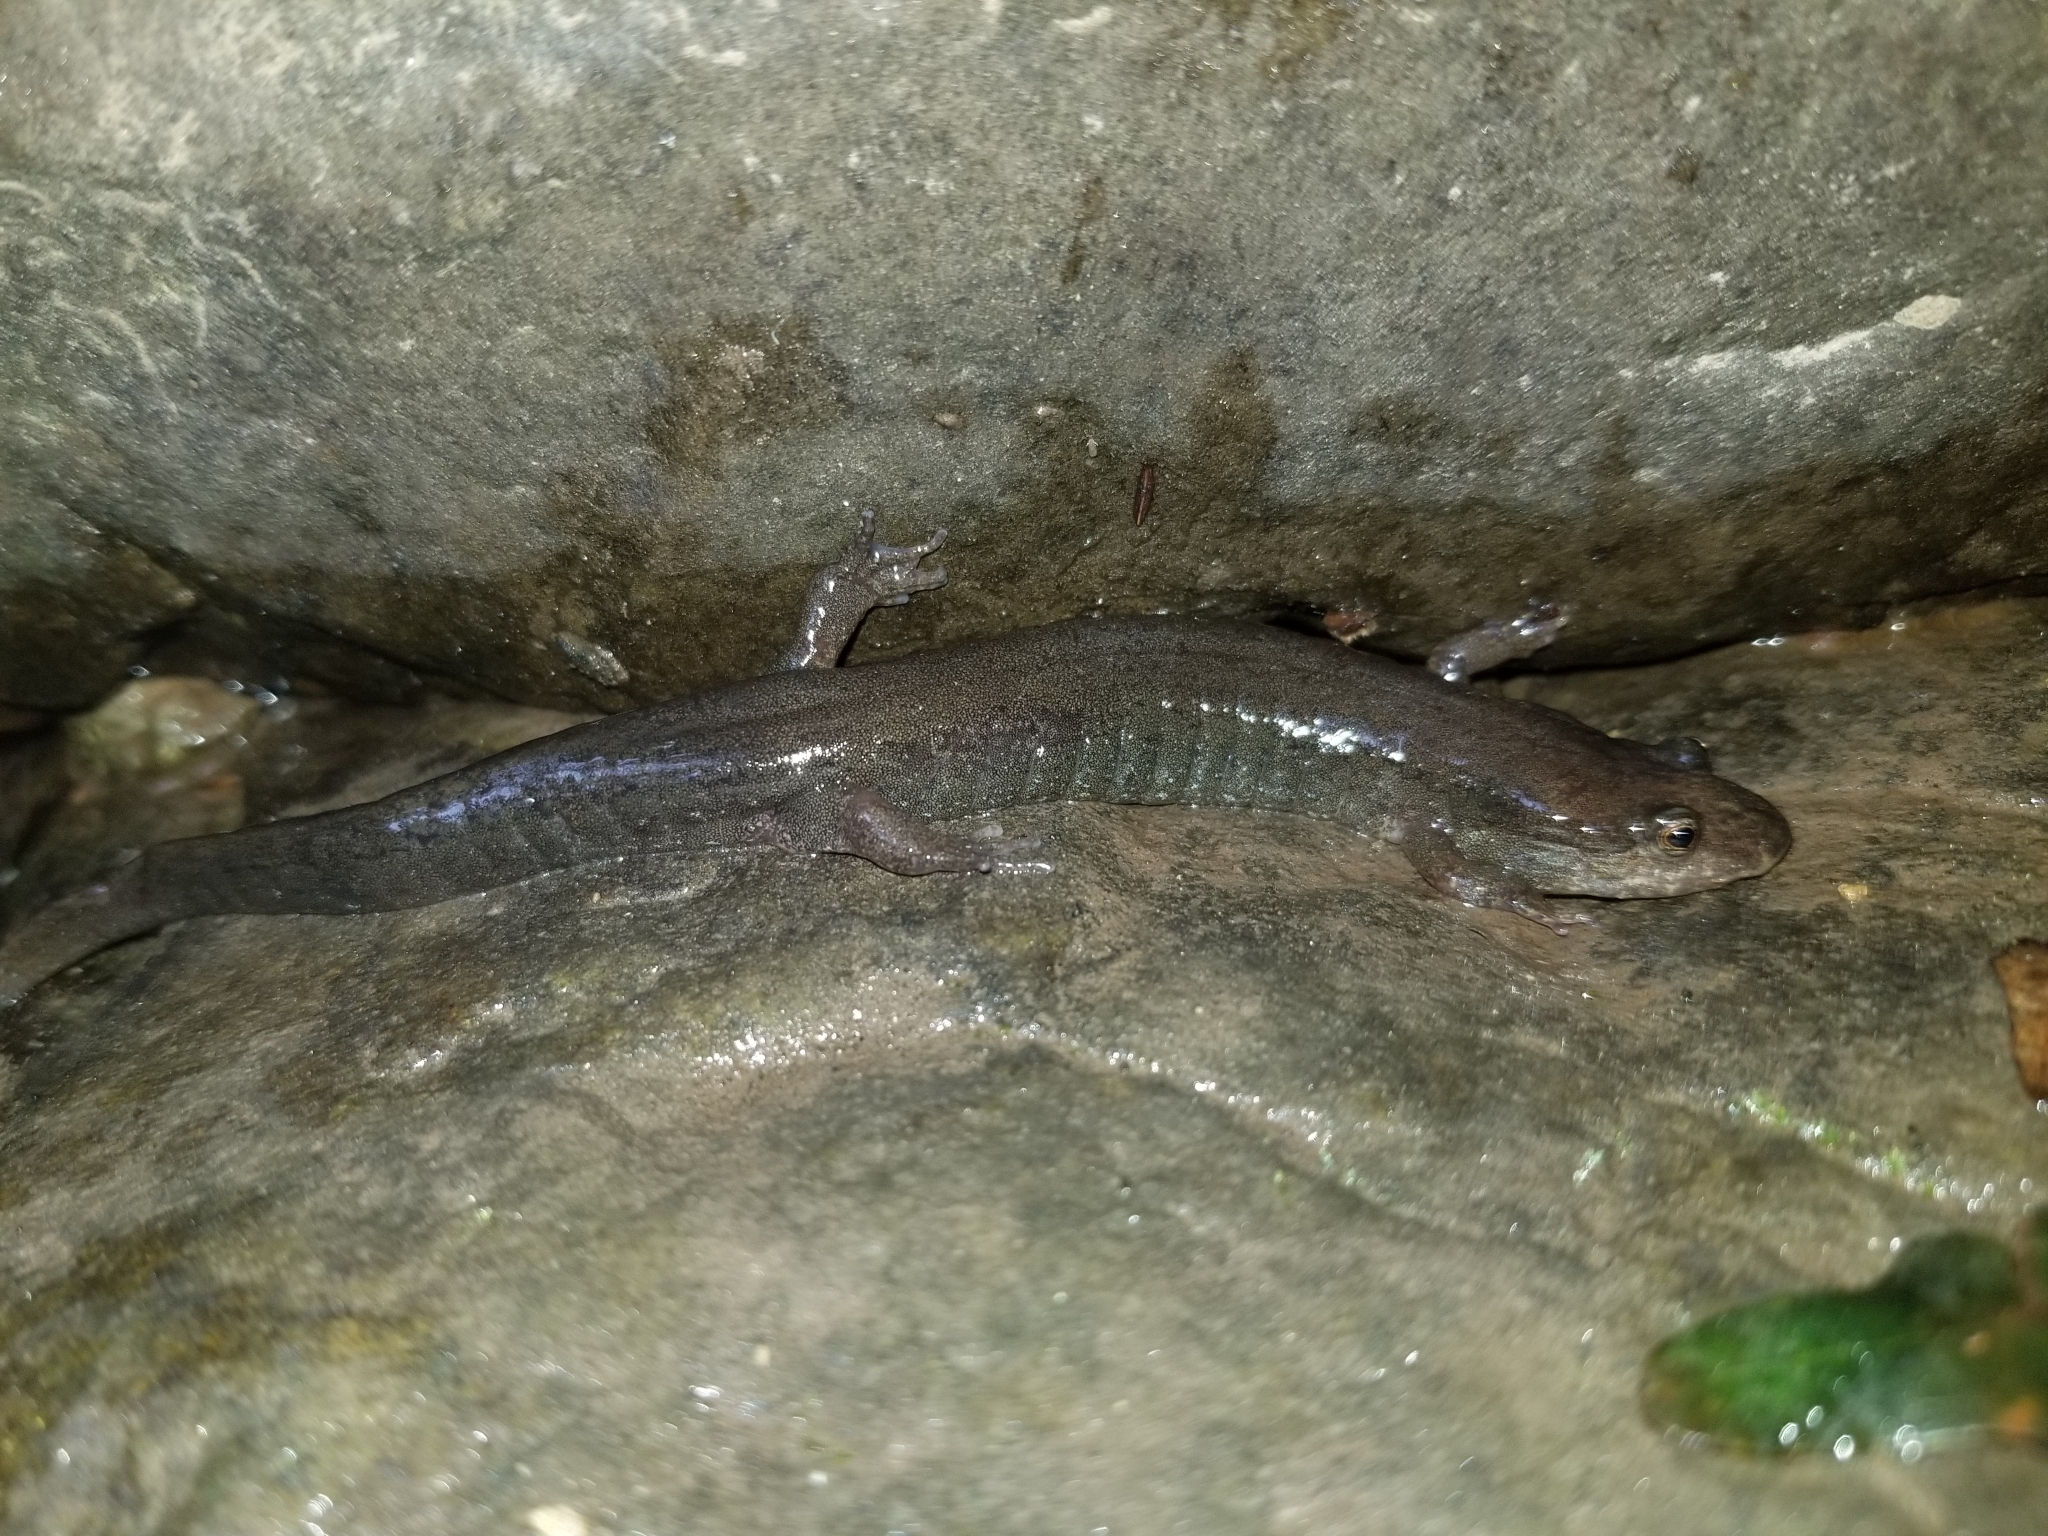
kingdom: Animalia
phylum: Chordata
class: Amphibia
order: Caudata
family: Plethodontidae
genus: Desmognathus
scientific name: Desmognathus fuscus
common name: Northern dusky salamander
